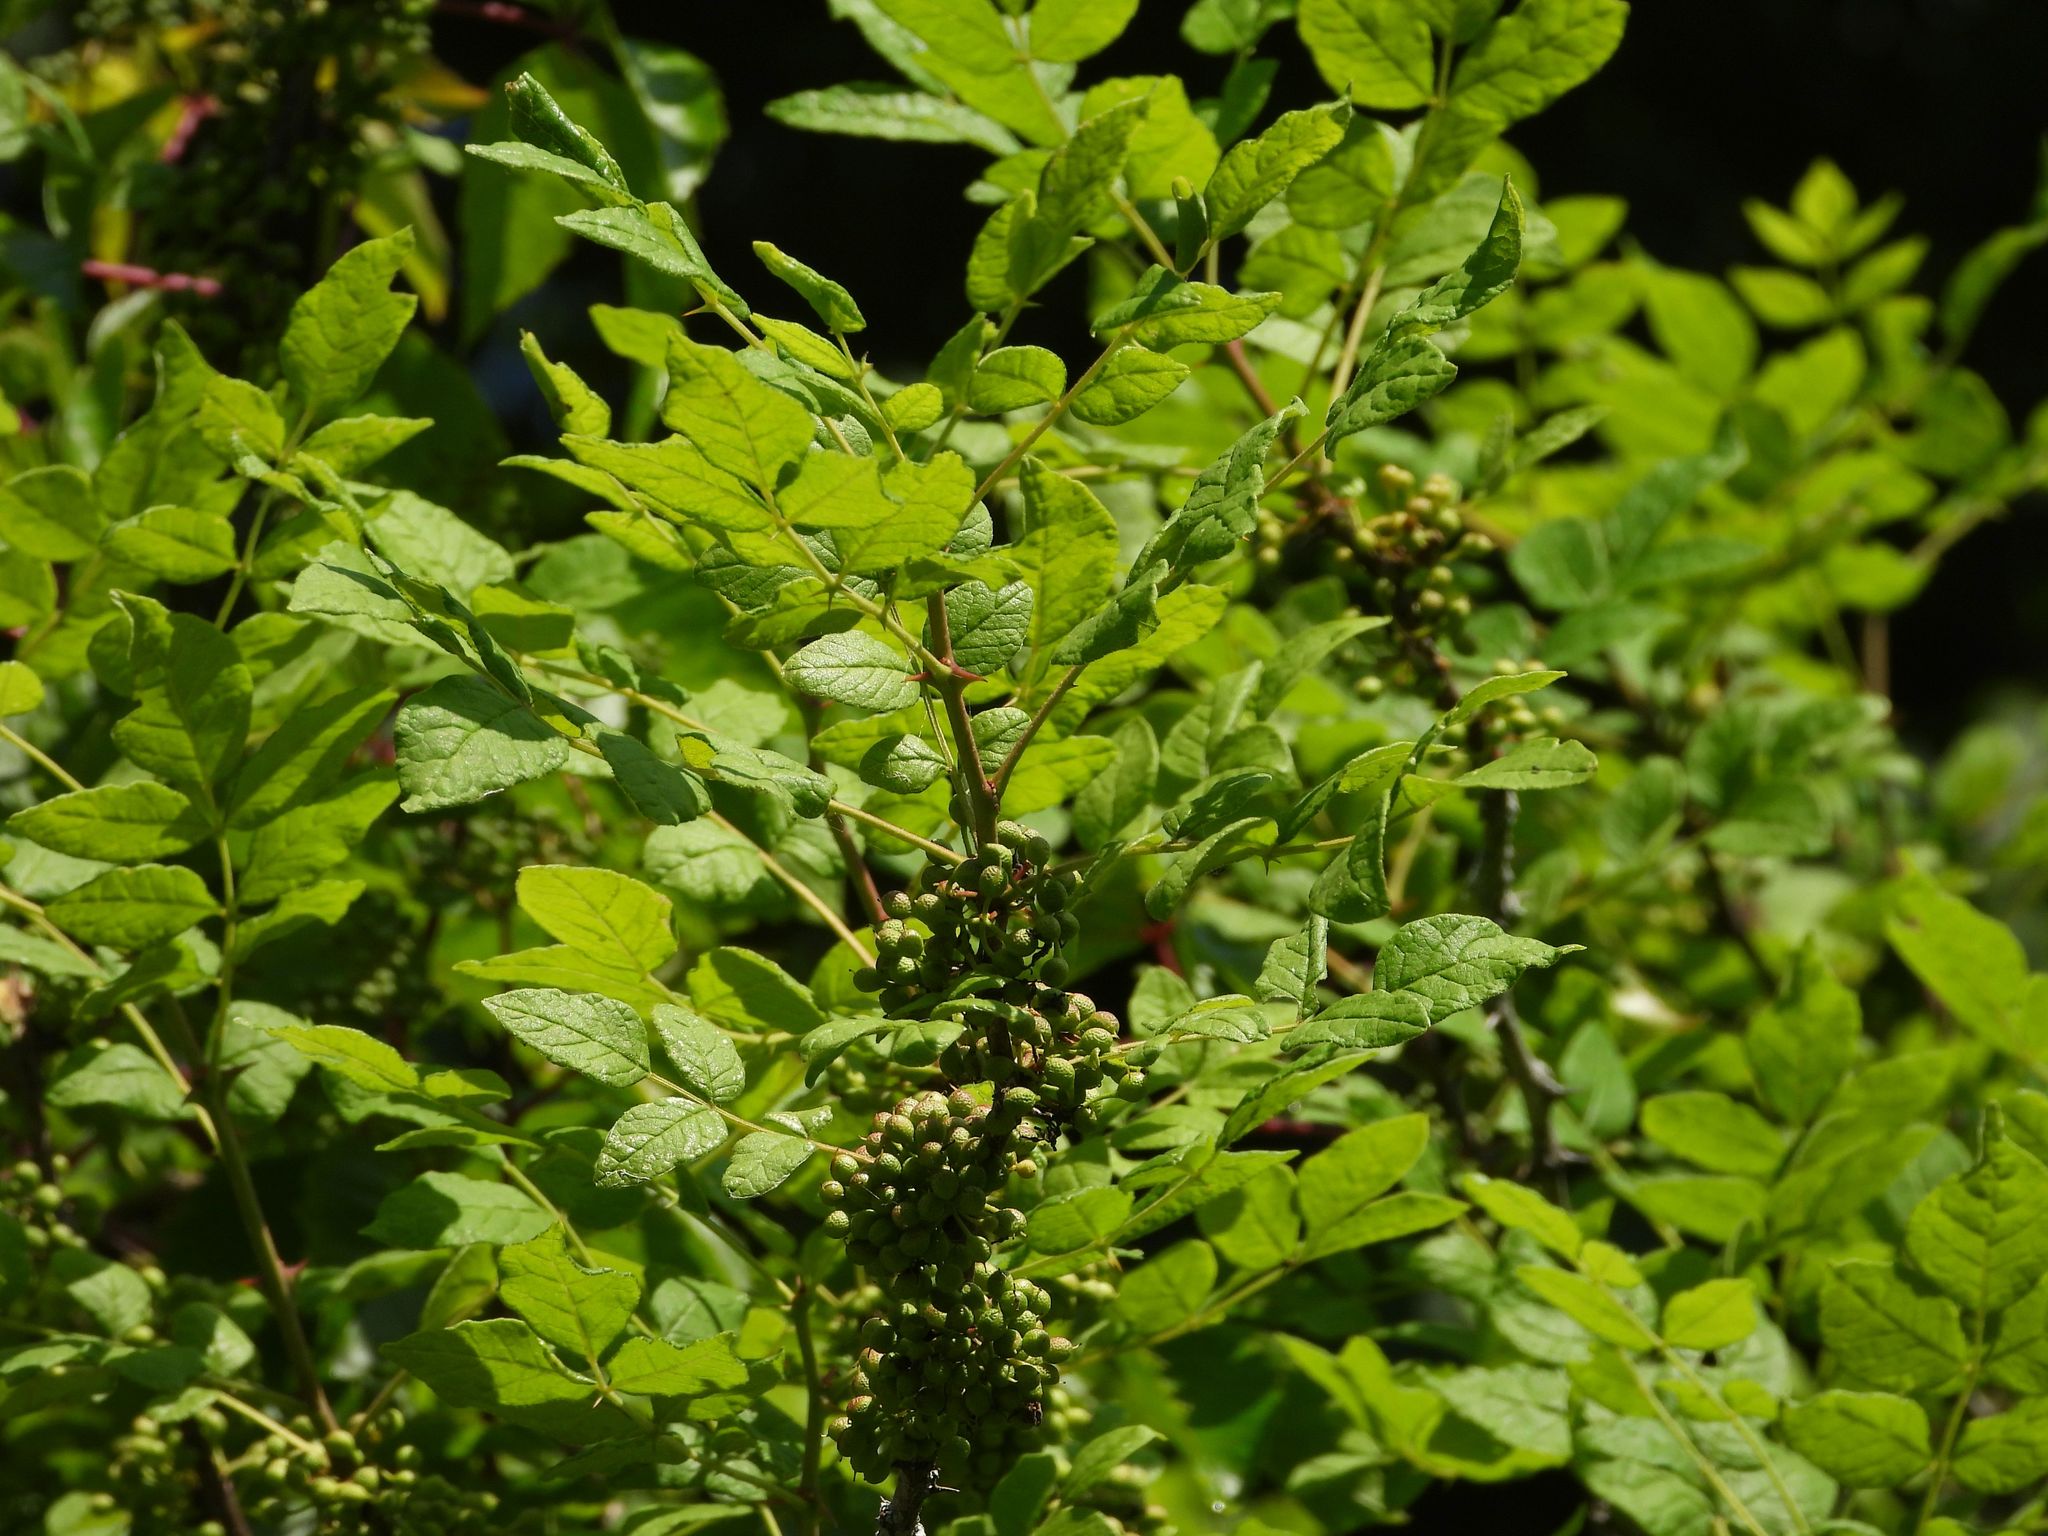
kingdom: Plantae
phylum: Tracheophyta
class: Magnoliopsida
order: Sapindales
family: Rutaceae
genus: Zanthoxylum
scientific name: Zanthoxylum americanum
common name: Northern prickly-ash
